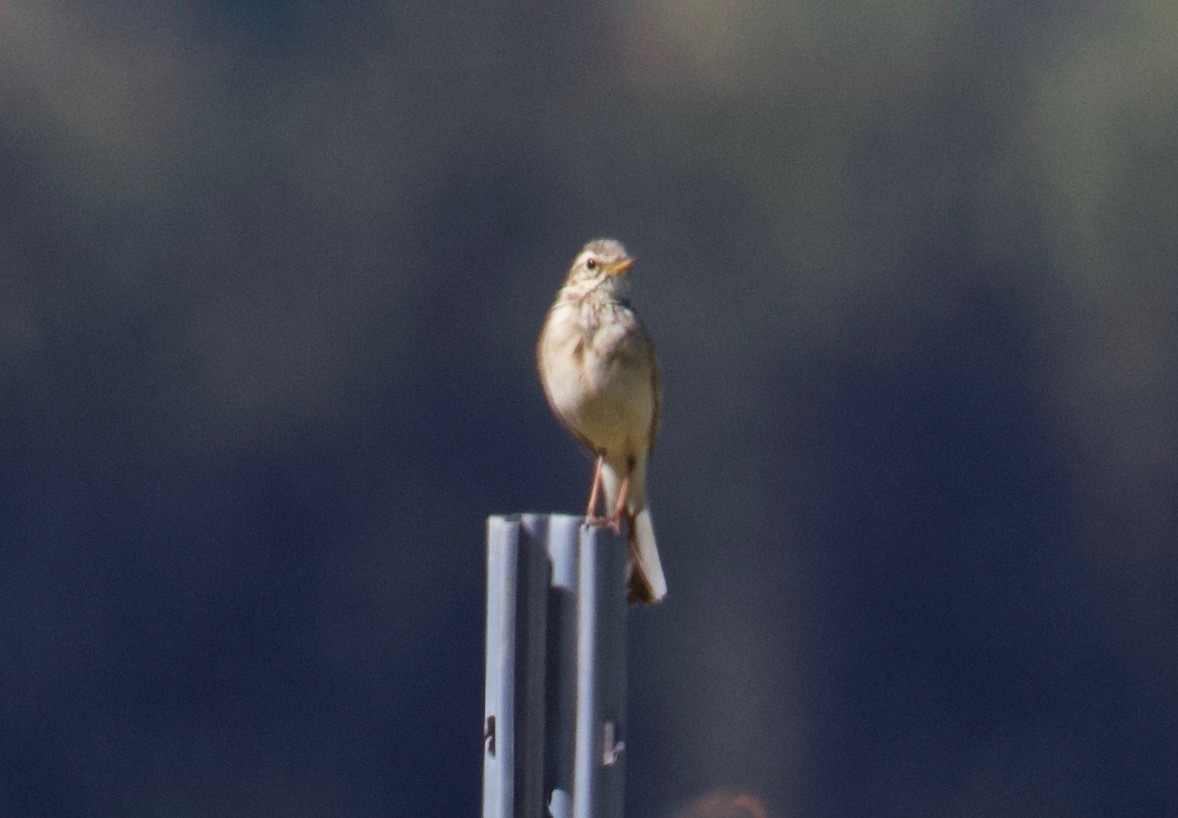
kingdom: Animalia
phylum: Chordata
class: Aves
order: Passeriformes
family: Motacillidae
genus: Anthus
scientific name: Anthus cinnamomeus
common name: African pipit
